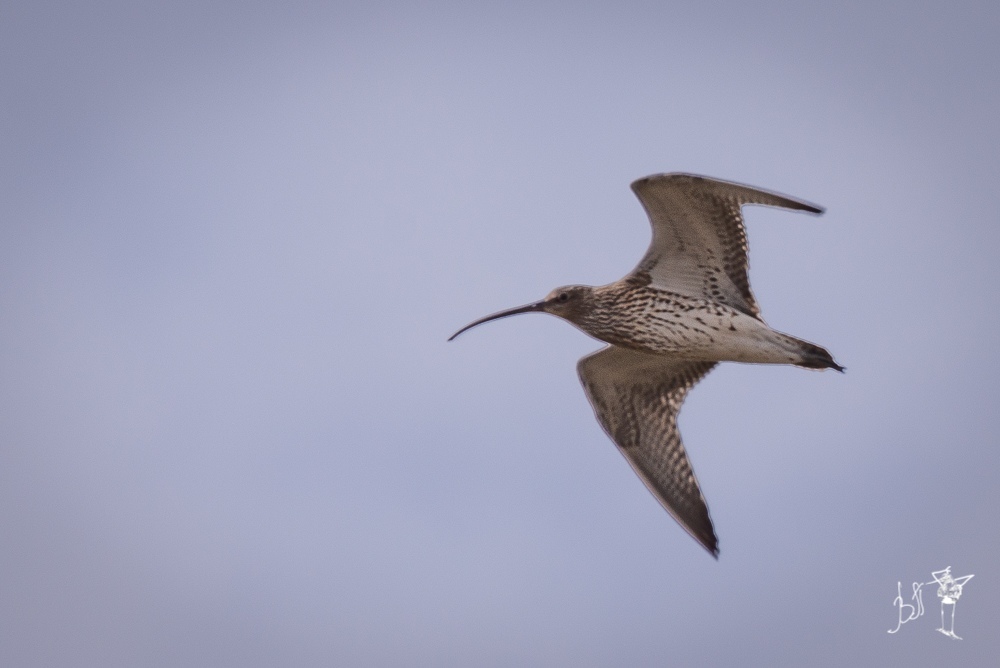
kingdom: Animalia
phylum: Chordata
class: Aves
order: Charadriiformes
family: Scolopacidae
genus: Numenius
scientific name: Numenius arquata
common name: Eurasian curlew
